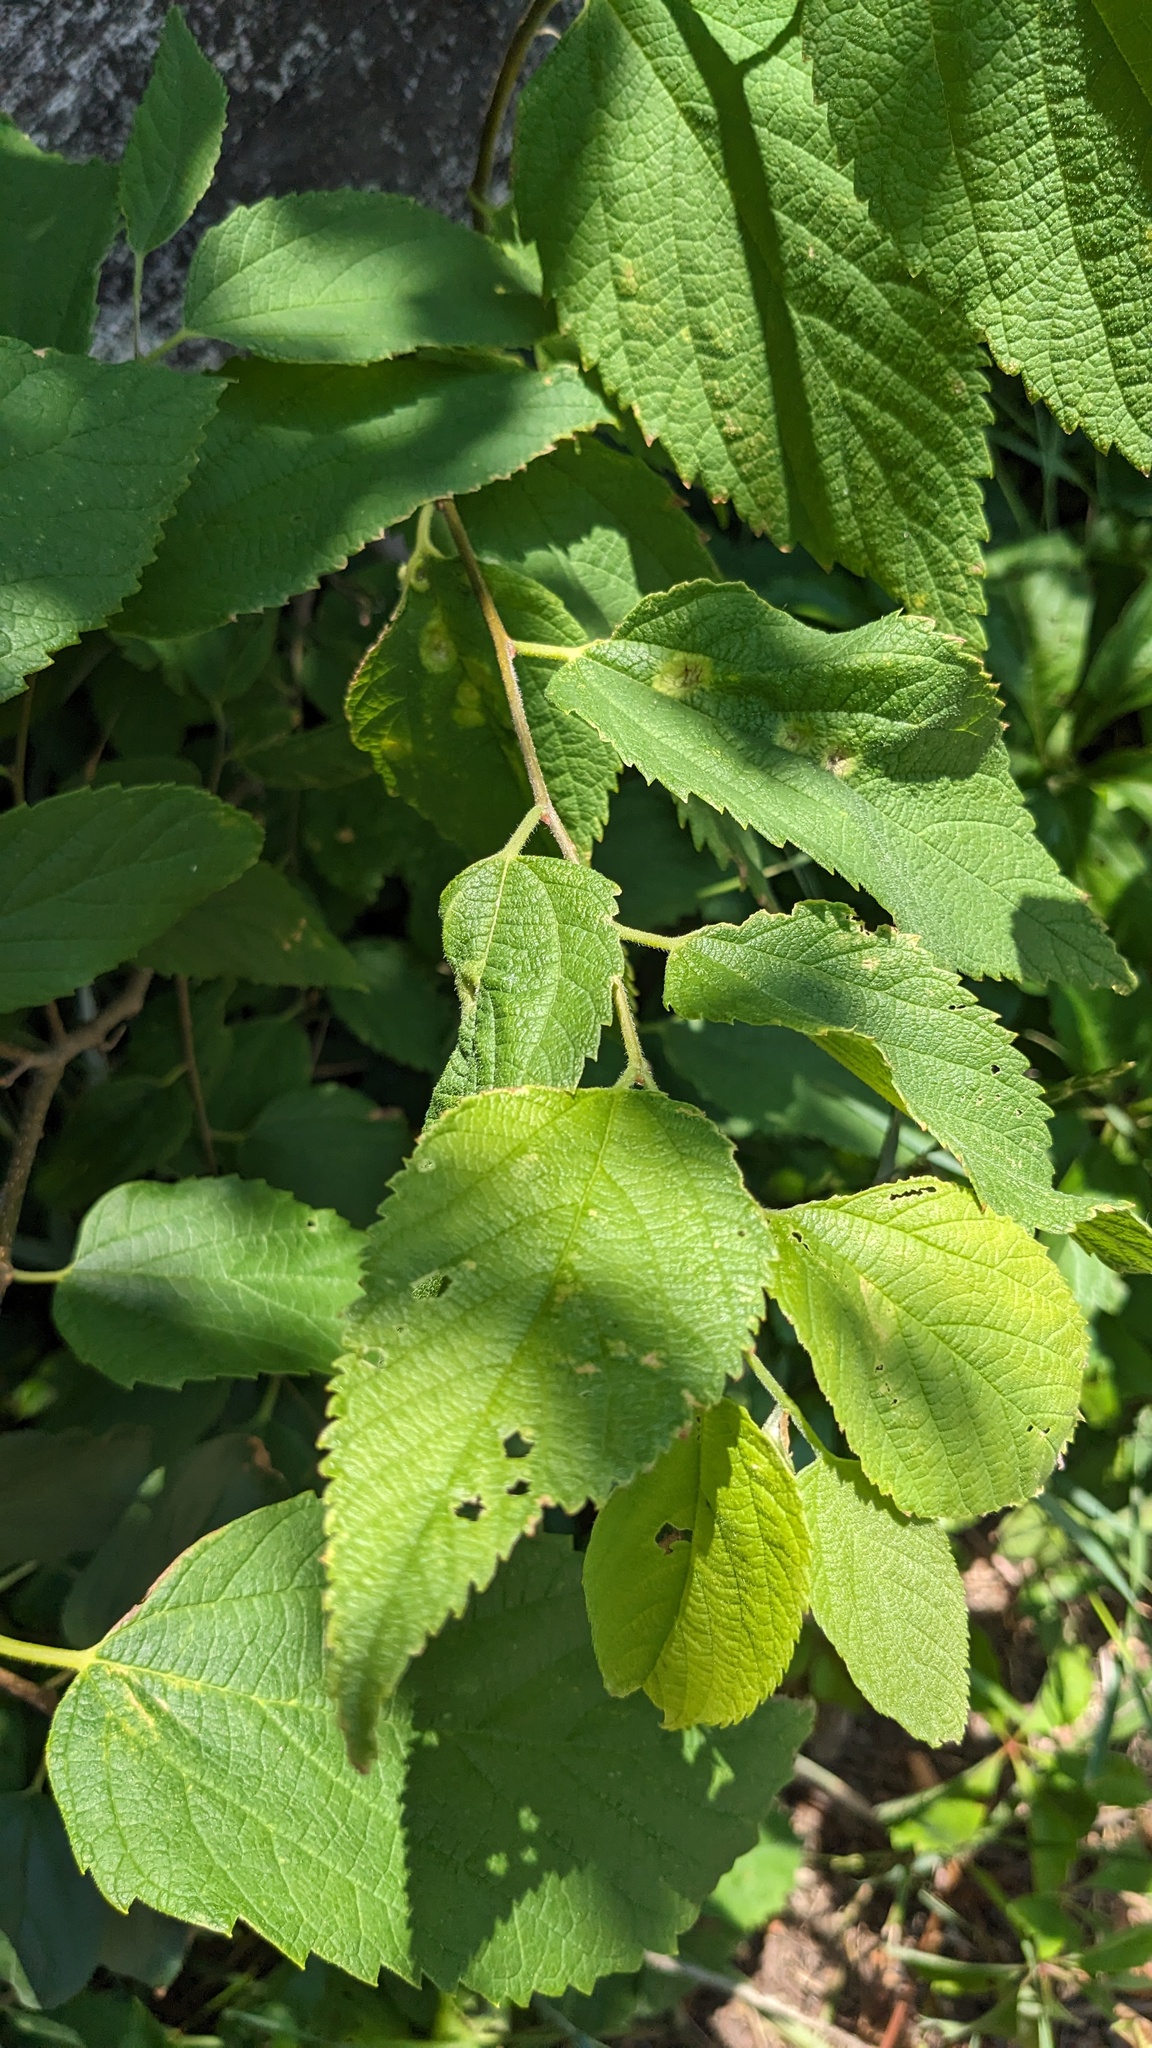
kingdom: Plantae
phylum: Tracheophyta
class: Magnoliopsida
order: Rosales
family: Cannabaceae
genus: Celtis
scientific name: Celtis occidentalis
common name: Common hackberry
